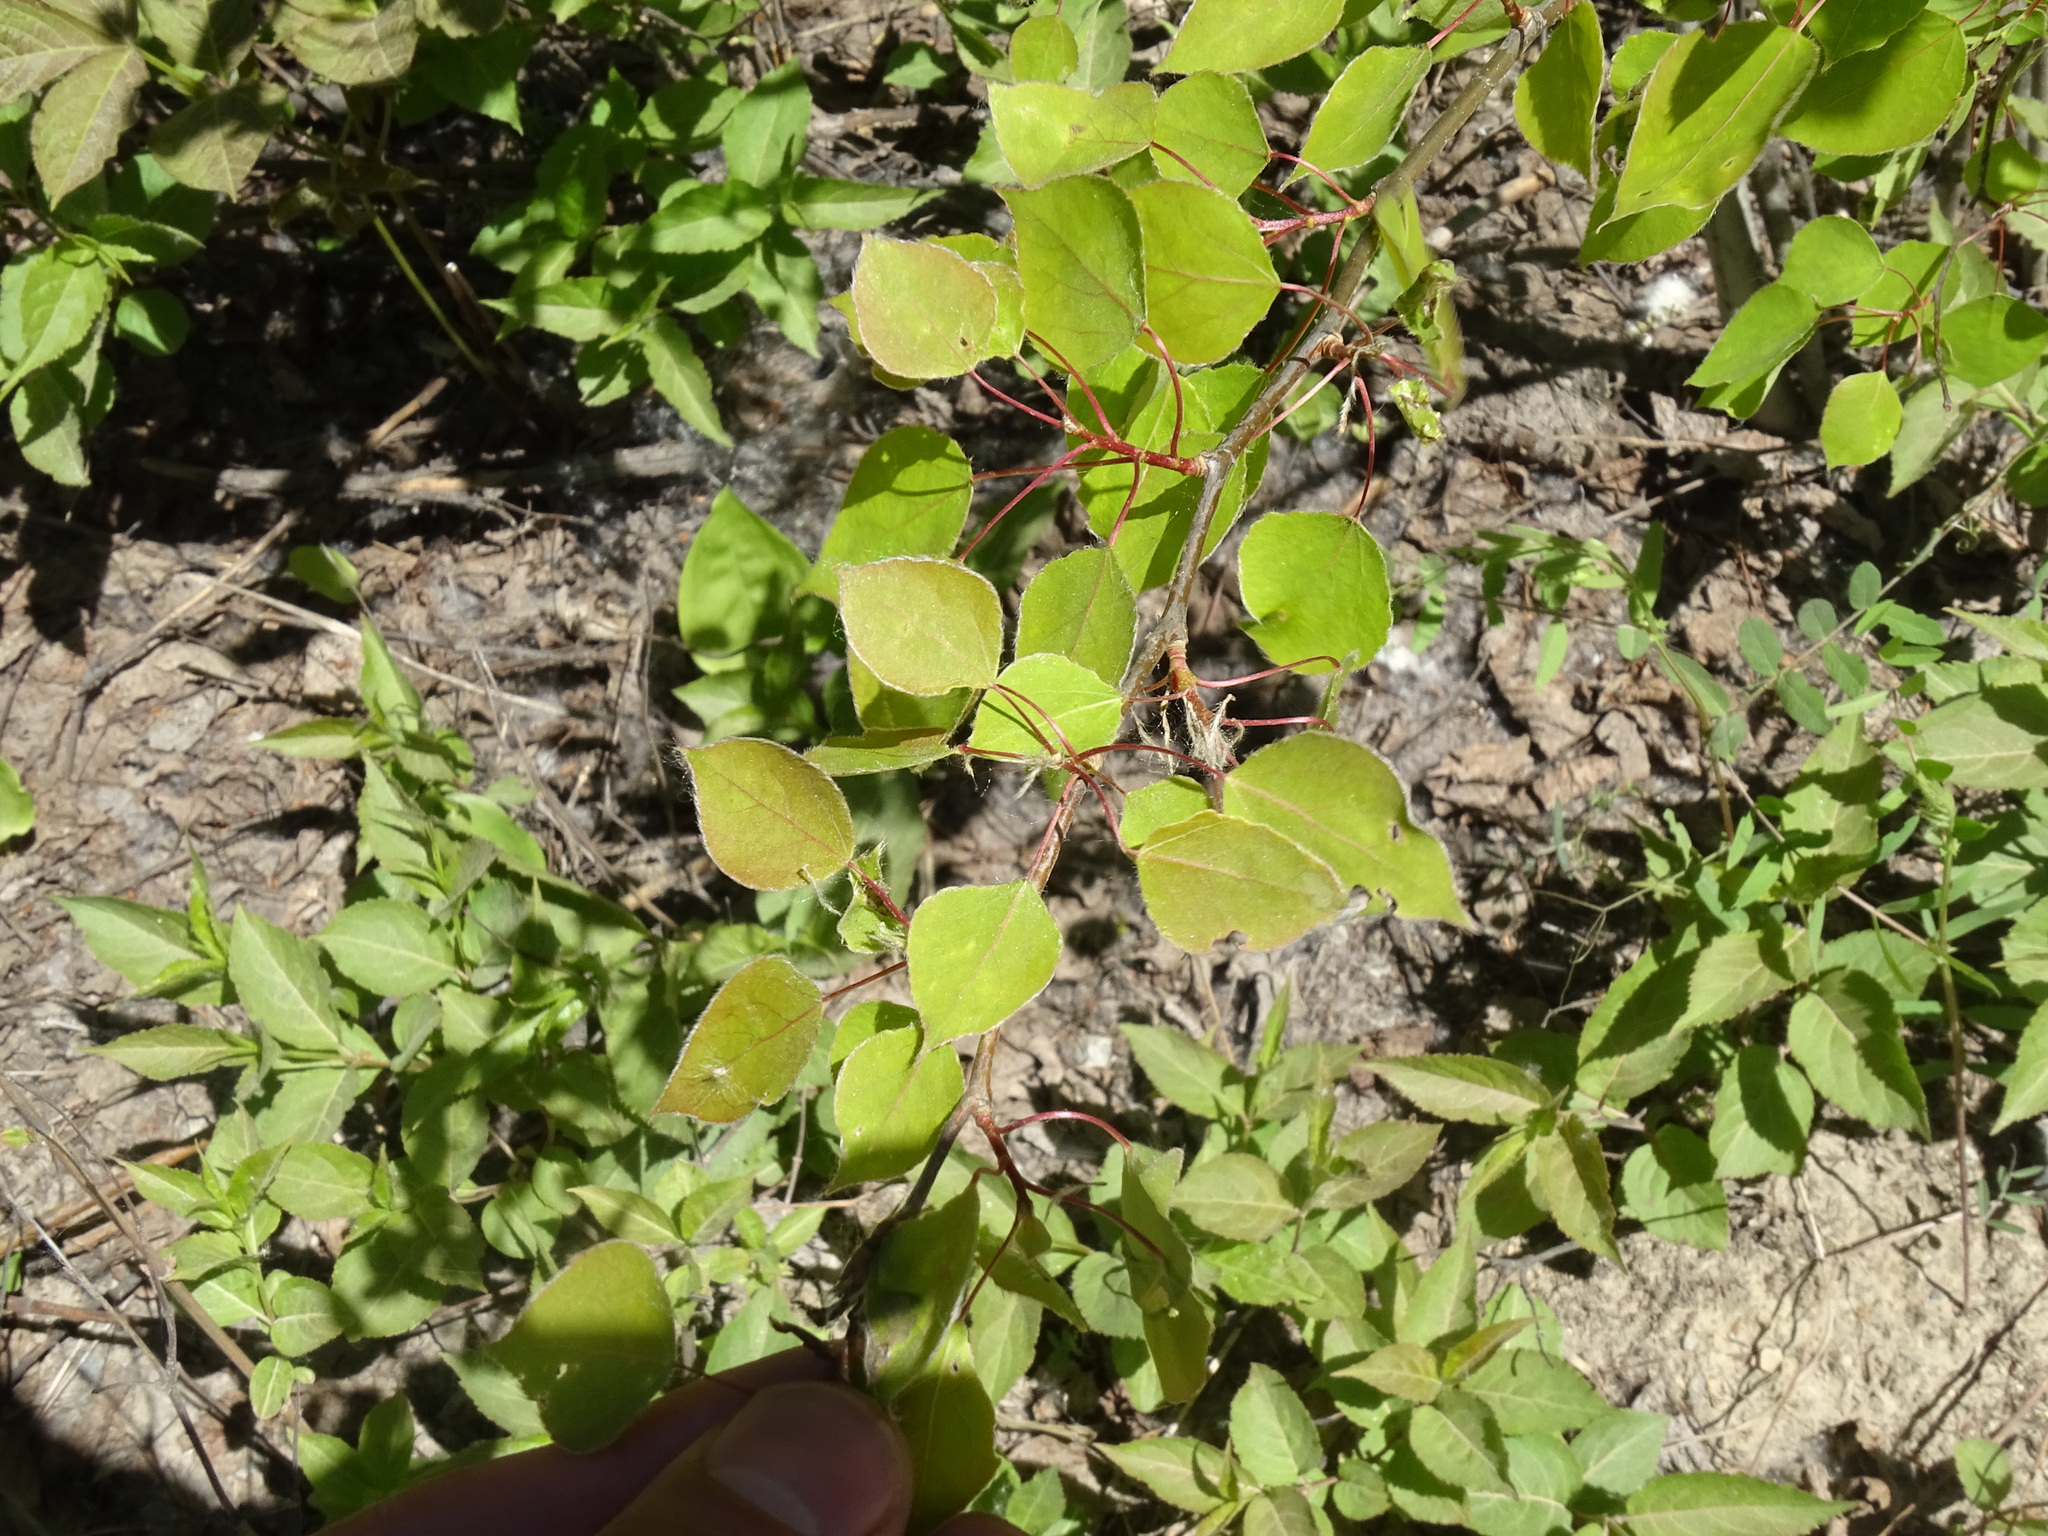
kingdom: Plantae
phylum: Tracheophyta
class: Magnoliopsida
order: Malpighiales
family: Salicaceae
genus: Populus
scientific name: Populus tremuloides
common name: Quaking aspen
